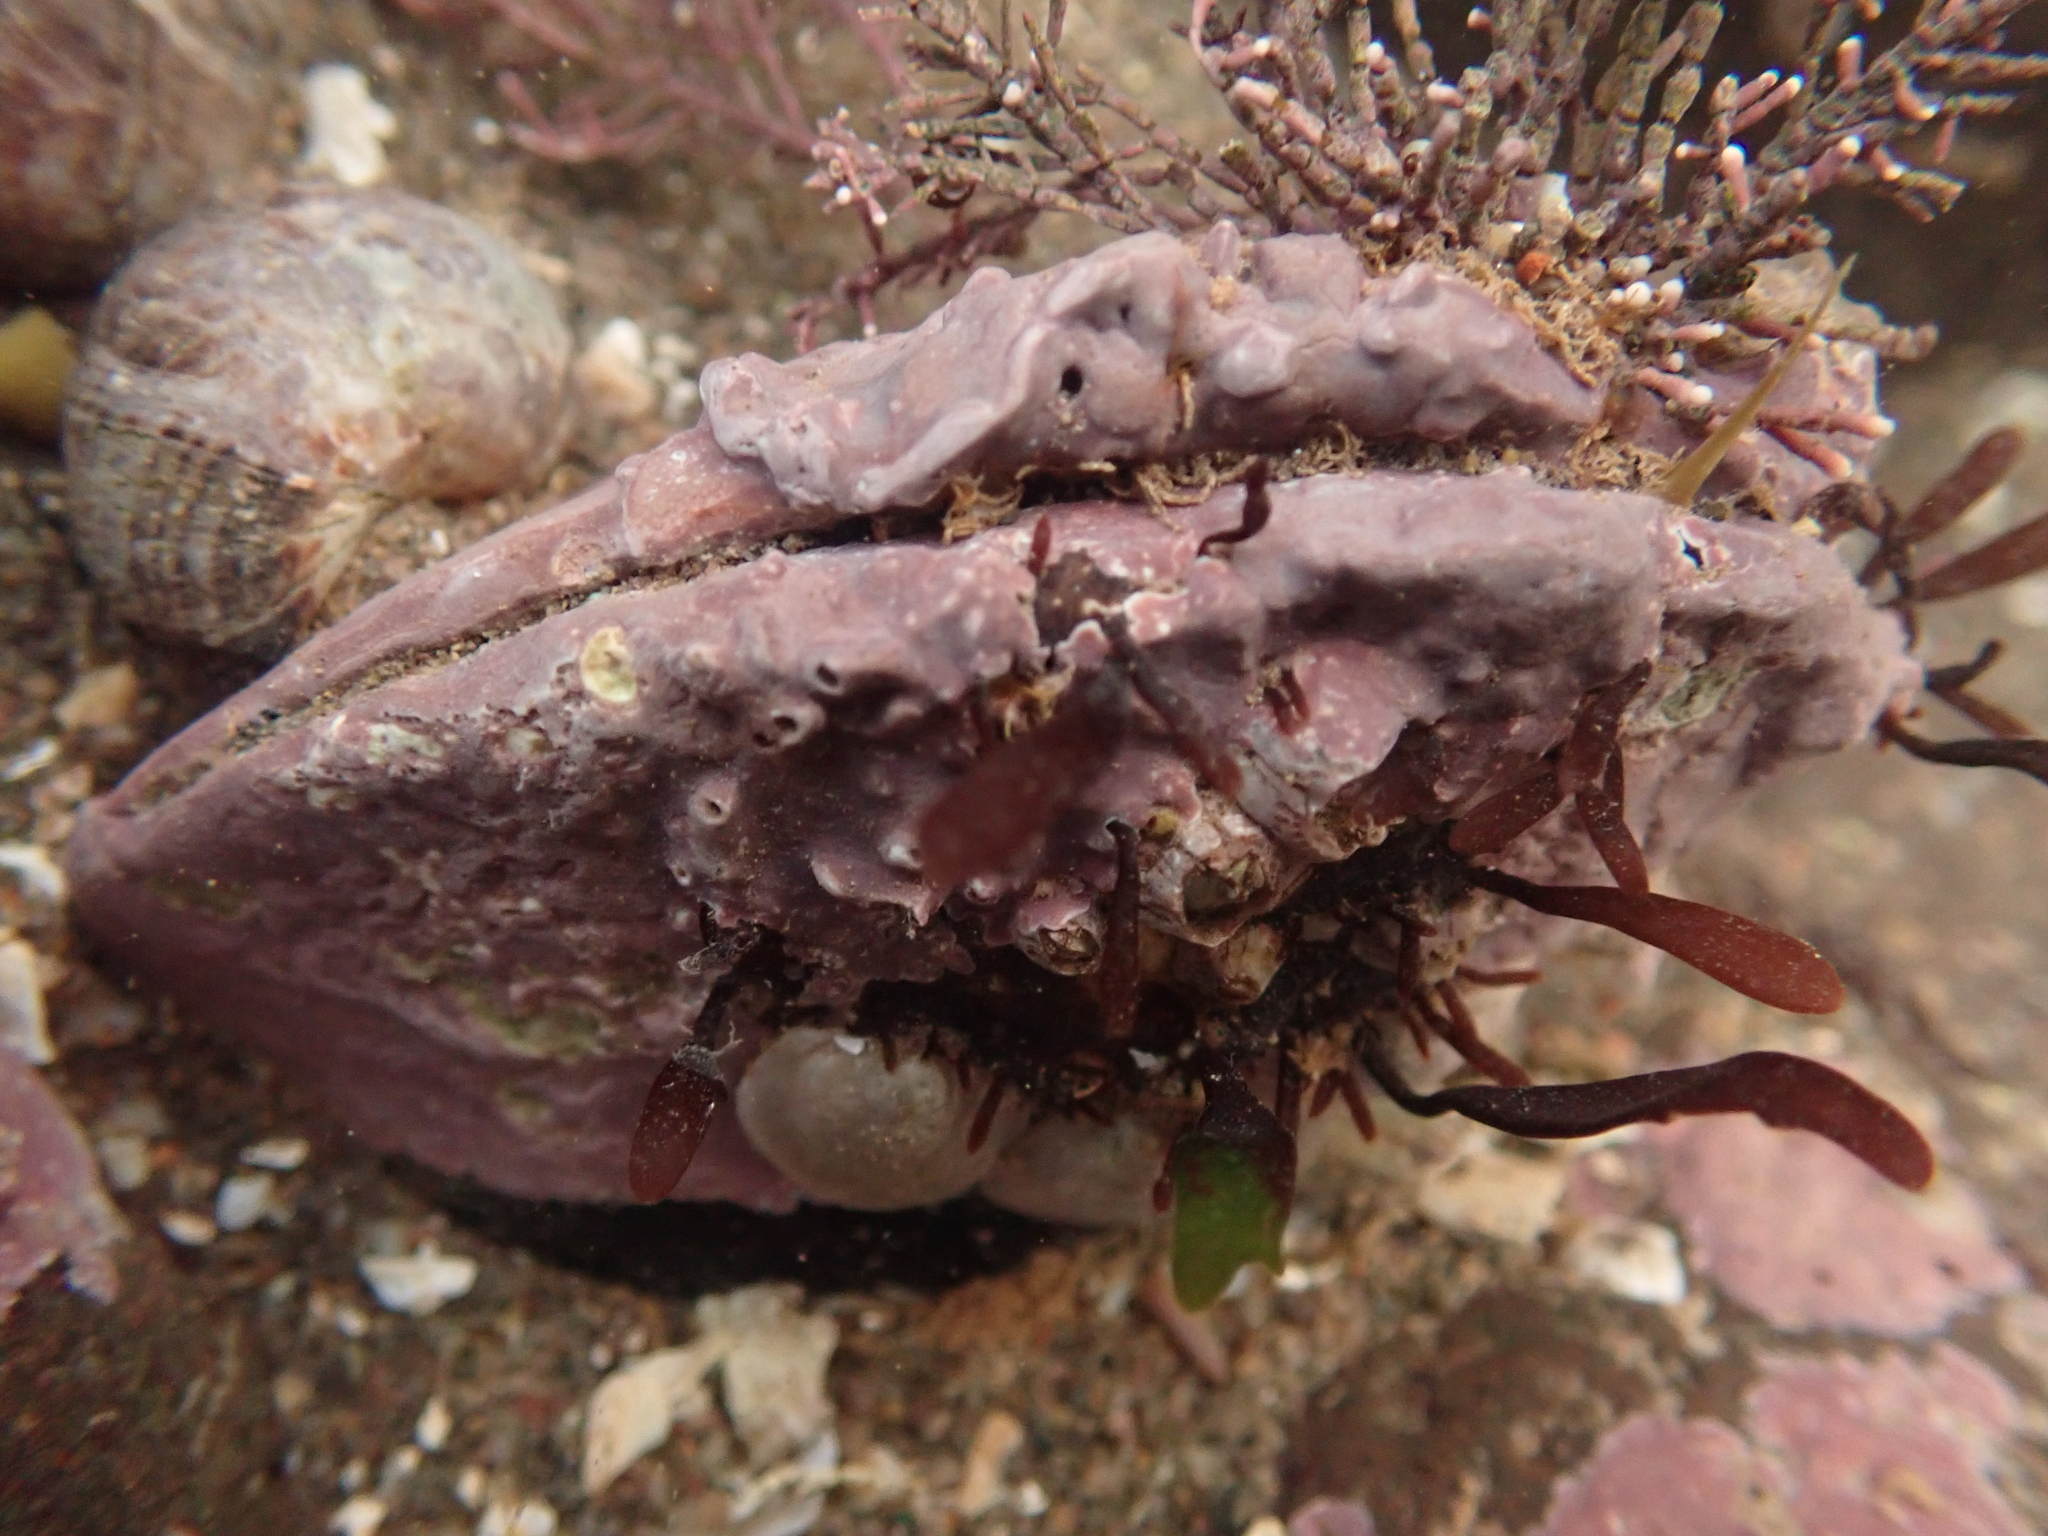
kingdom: Animalia
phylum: Mollusca
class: Bivalvia
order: Mytilida
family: Mytilidae
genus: Modiolus
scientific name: Modiolus modiolus
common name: Horse-mussel
